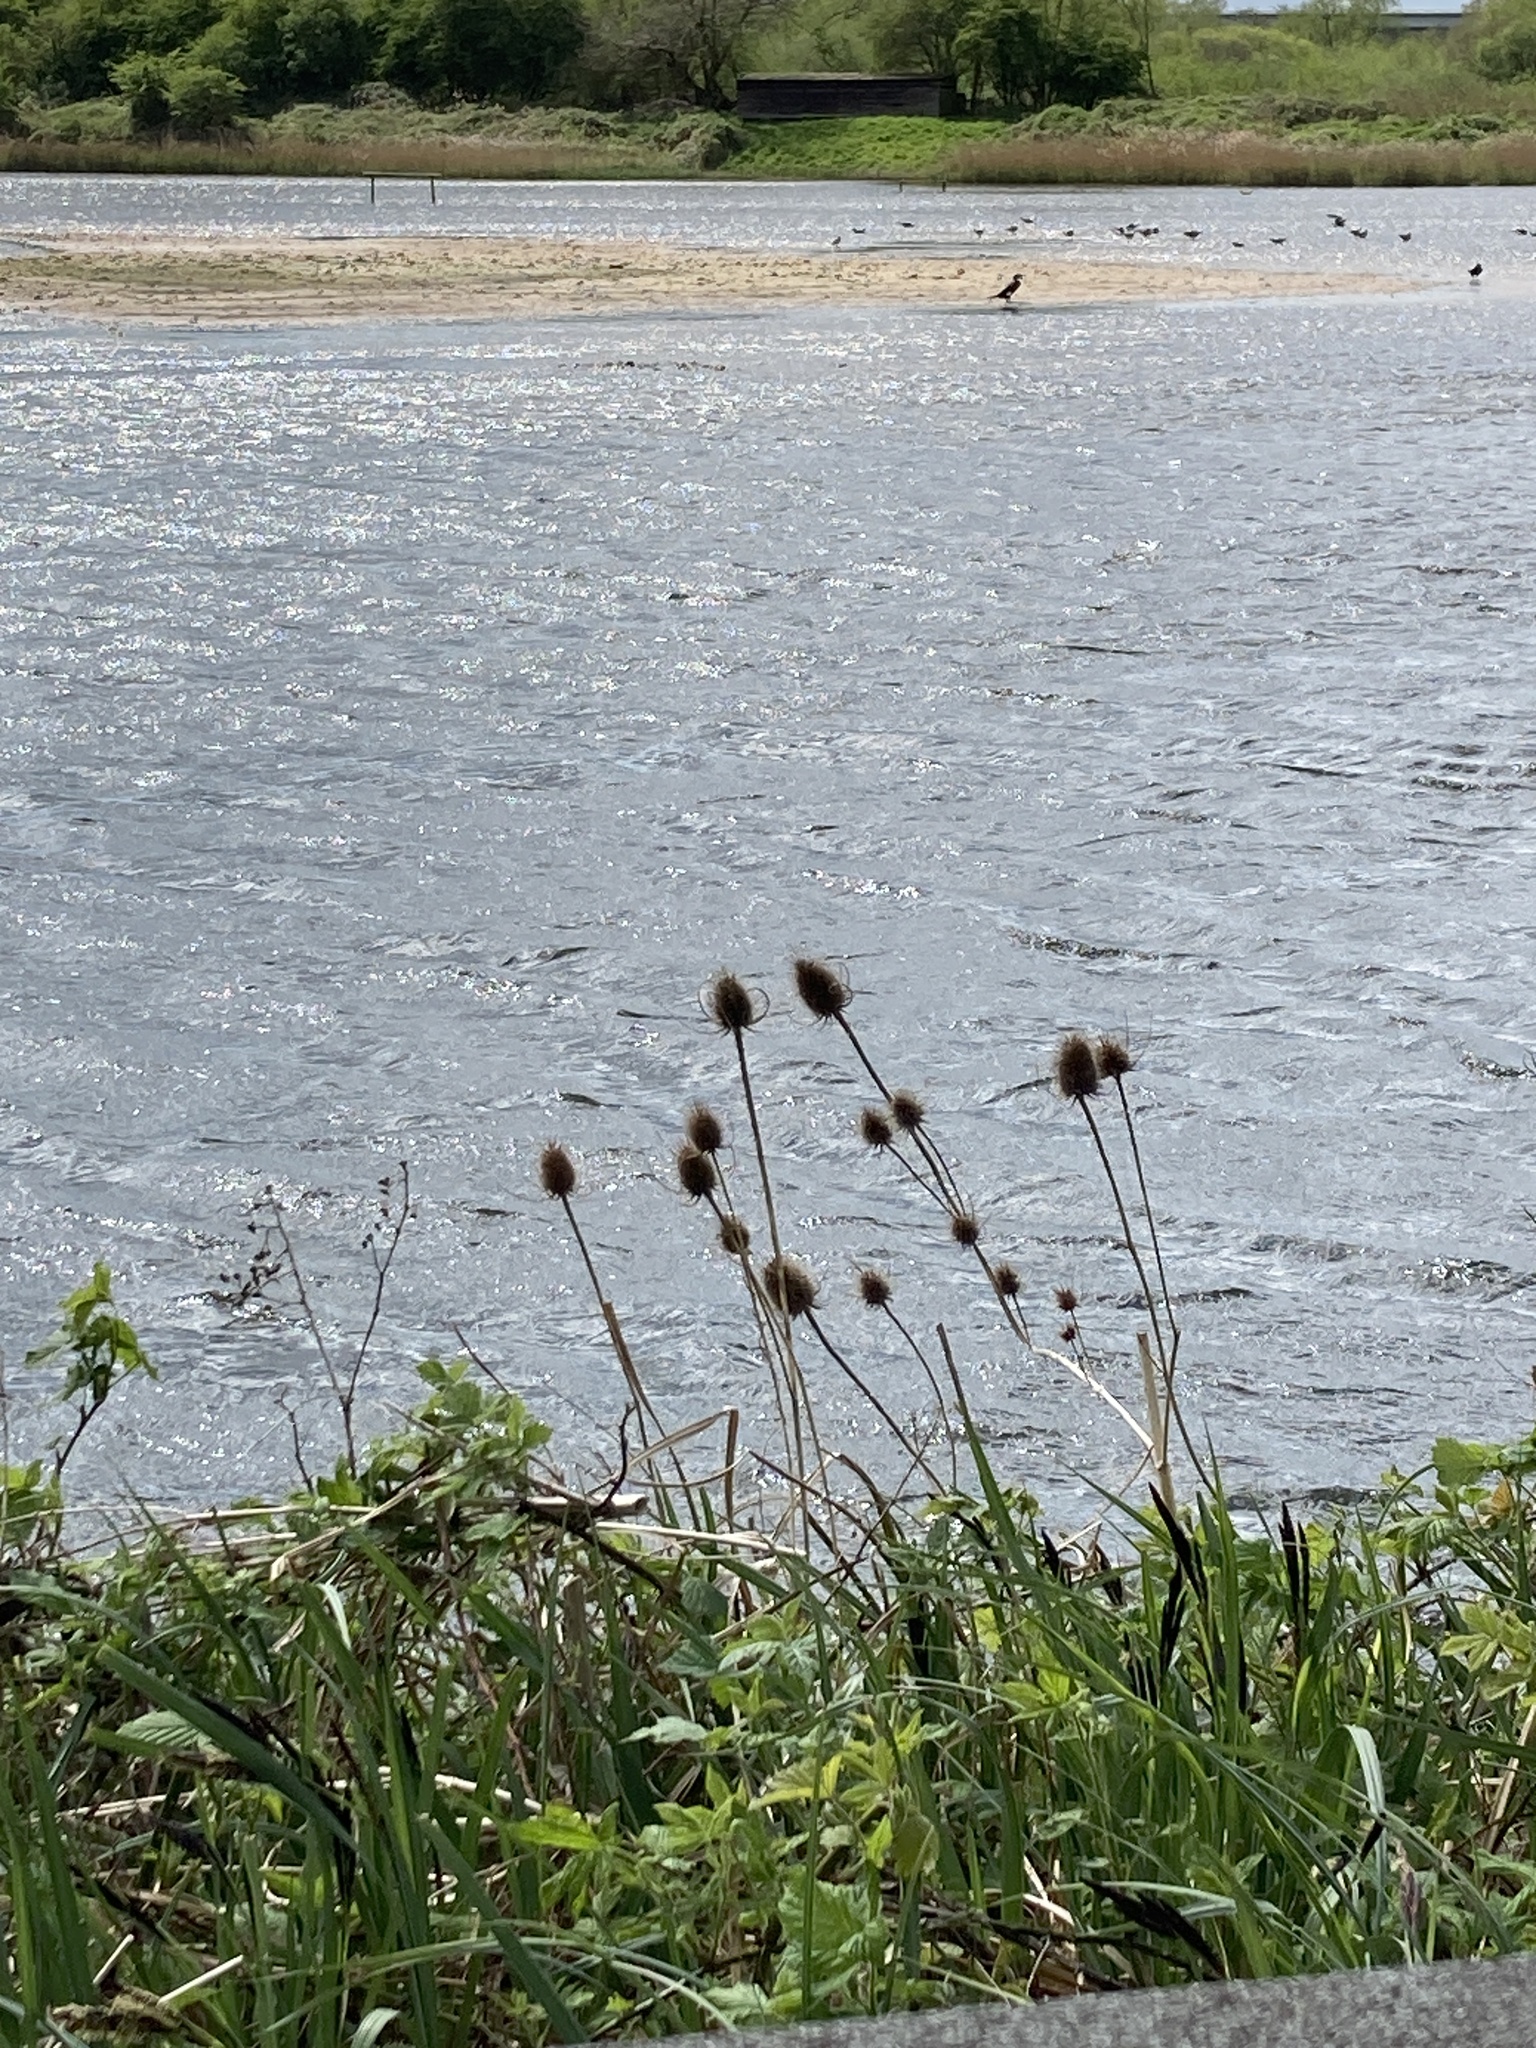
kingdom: Plantae
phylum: Tracheophyta
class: Magnoliopsida
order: Dipsacales
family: Caprifoliaceae
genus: Dipsacus
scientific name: Dipsacus fullonum
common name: Teasel
